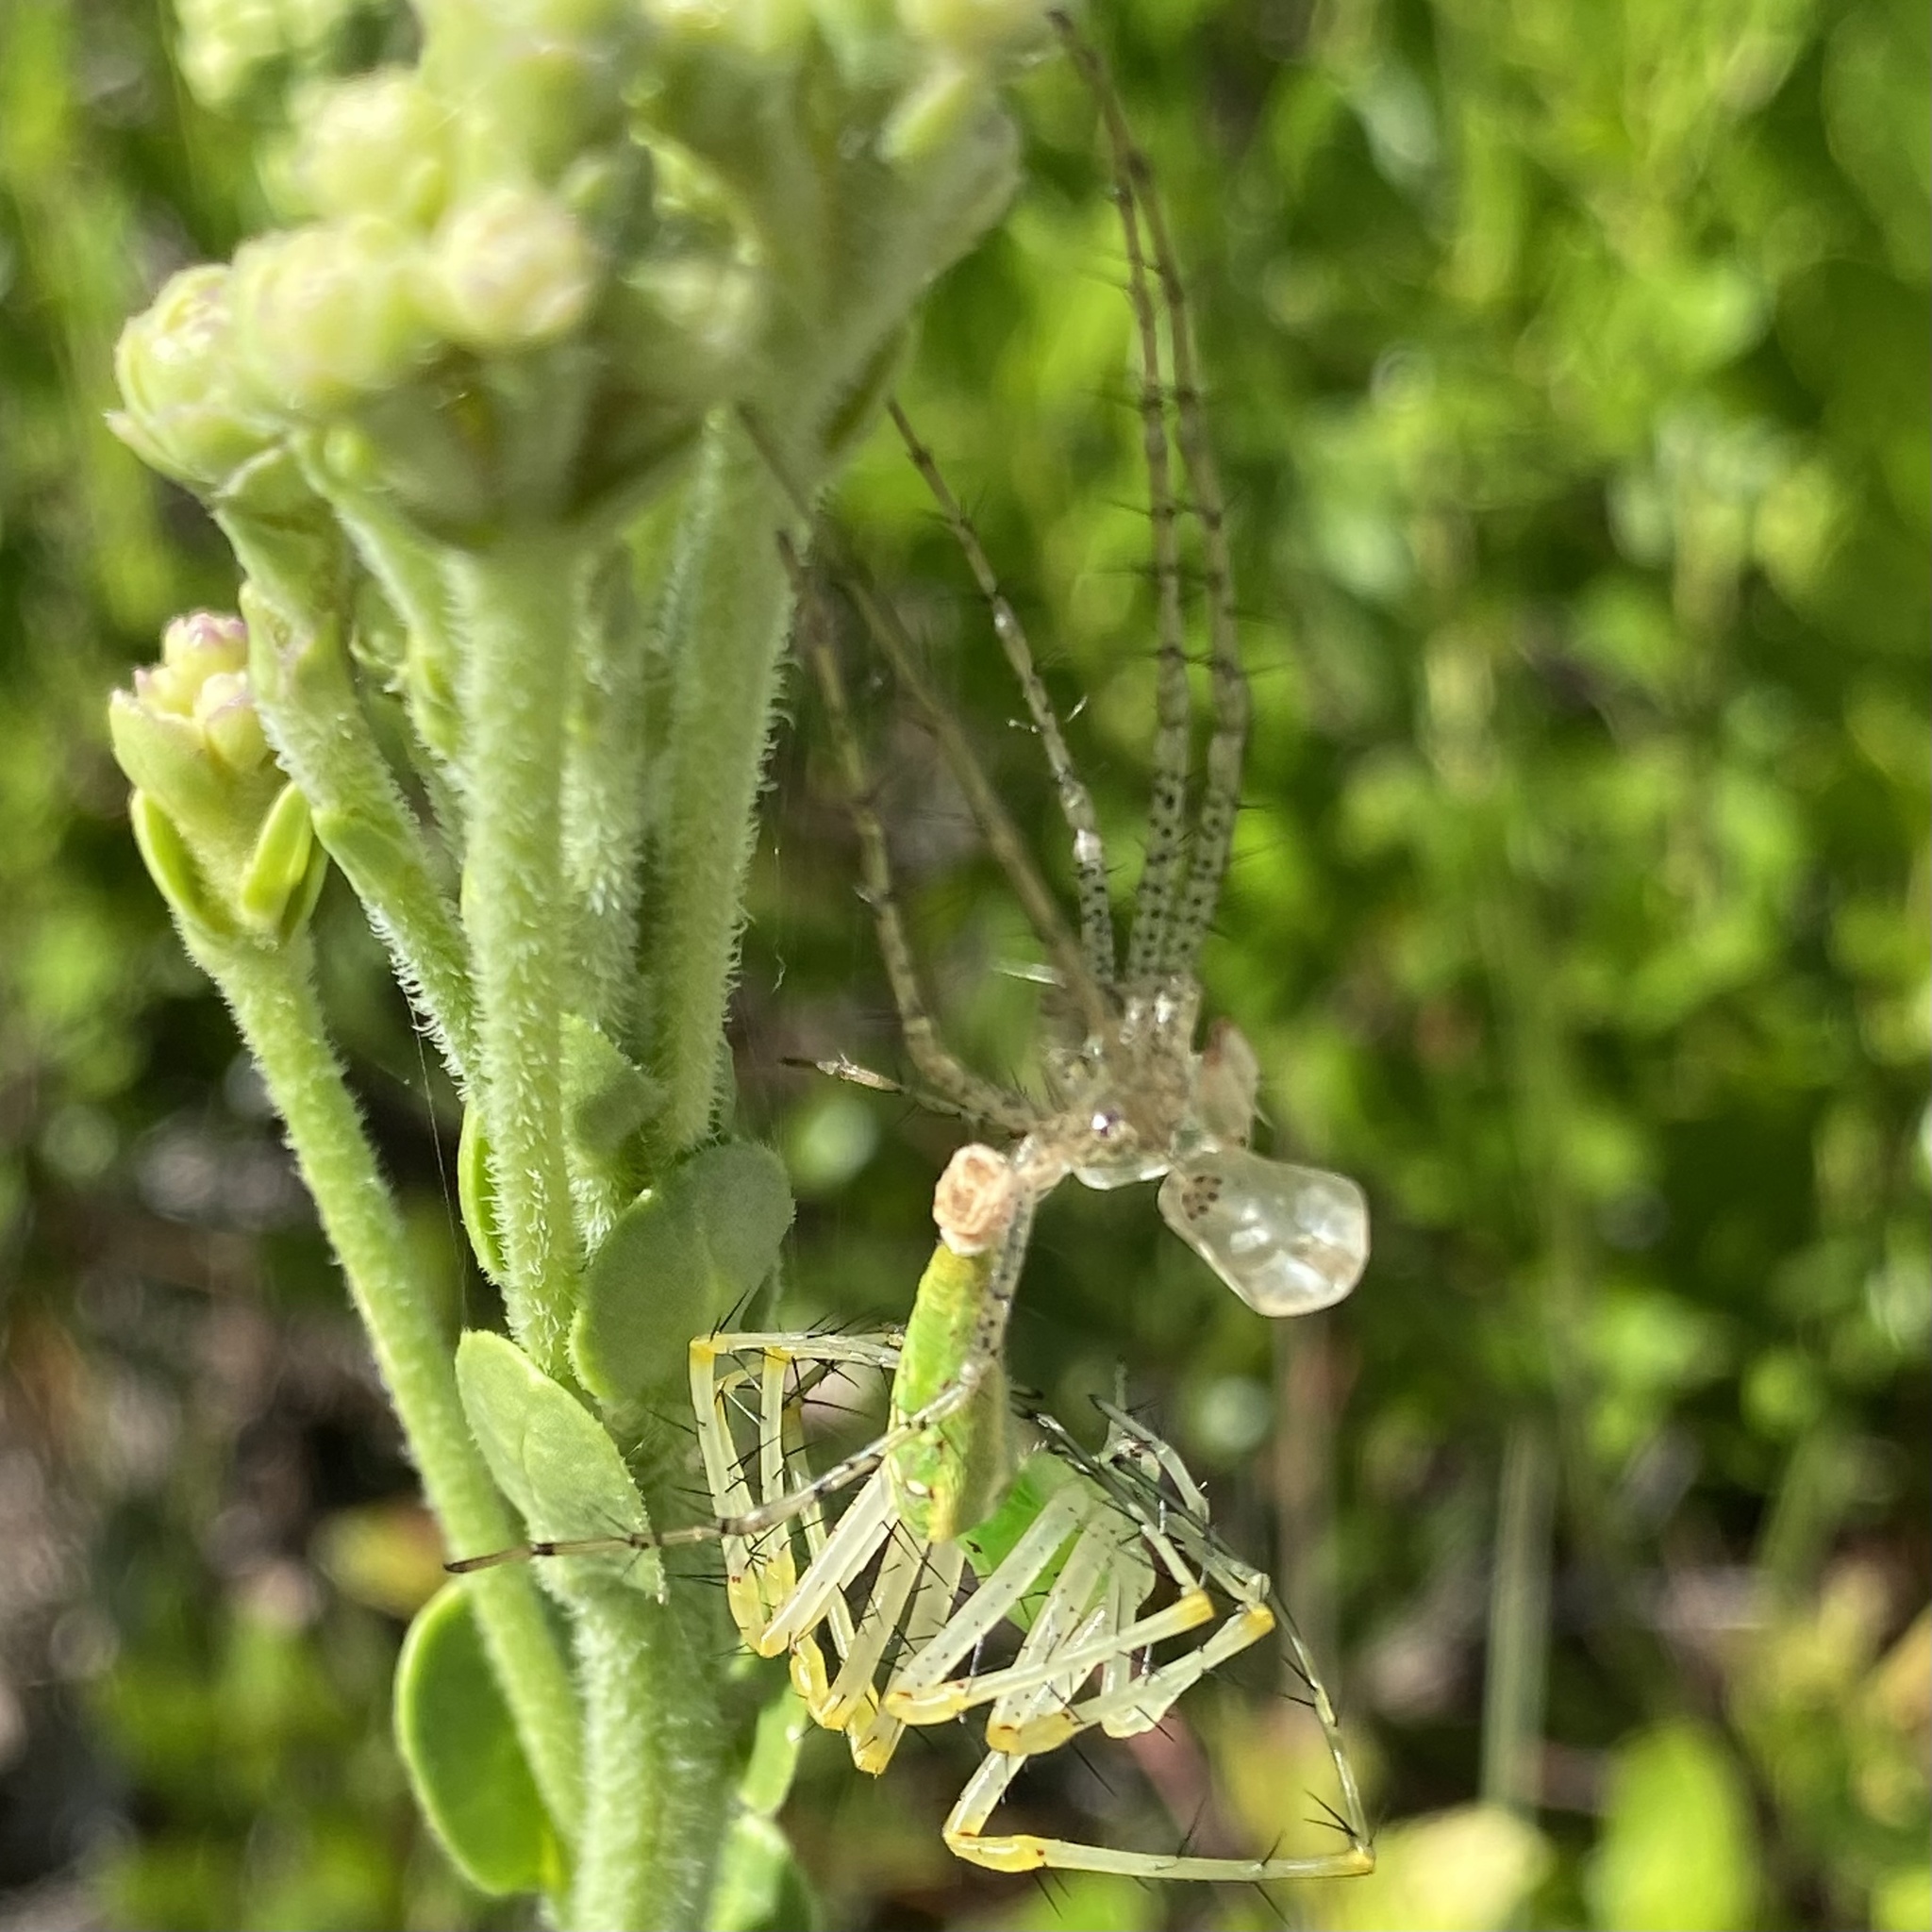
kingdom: Animalia
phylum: Arthropoda
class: Arachnida
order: Araneae
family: Oxyopidae
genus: Peucetia
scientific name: Peucetia viridans
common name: Lynx spiders
